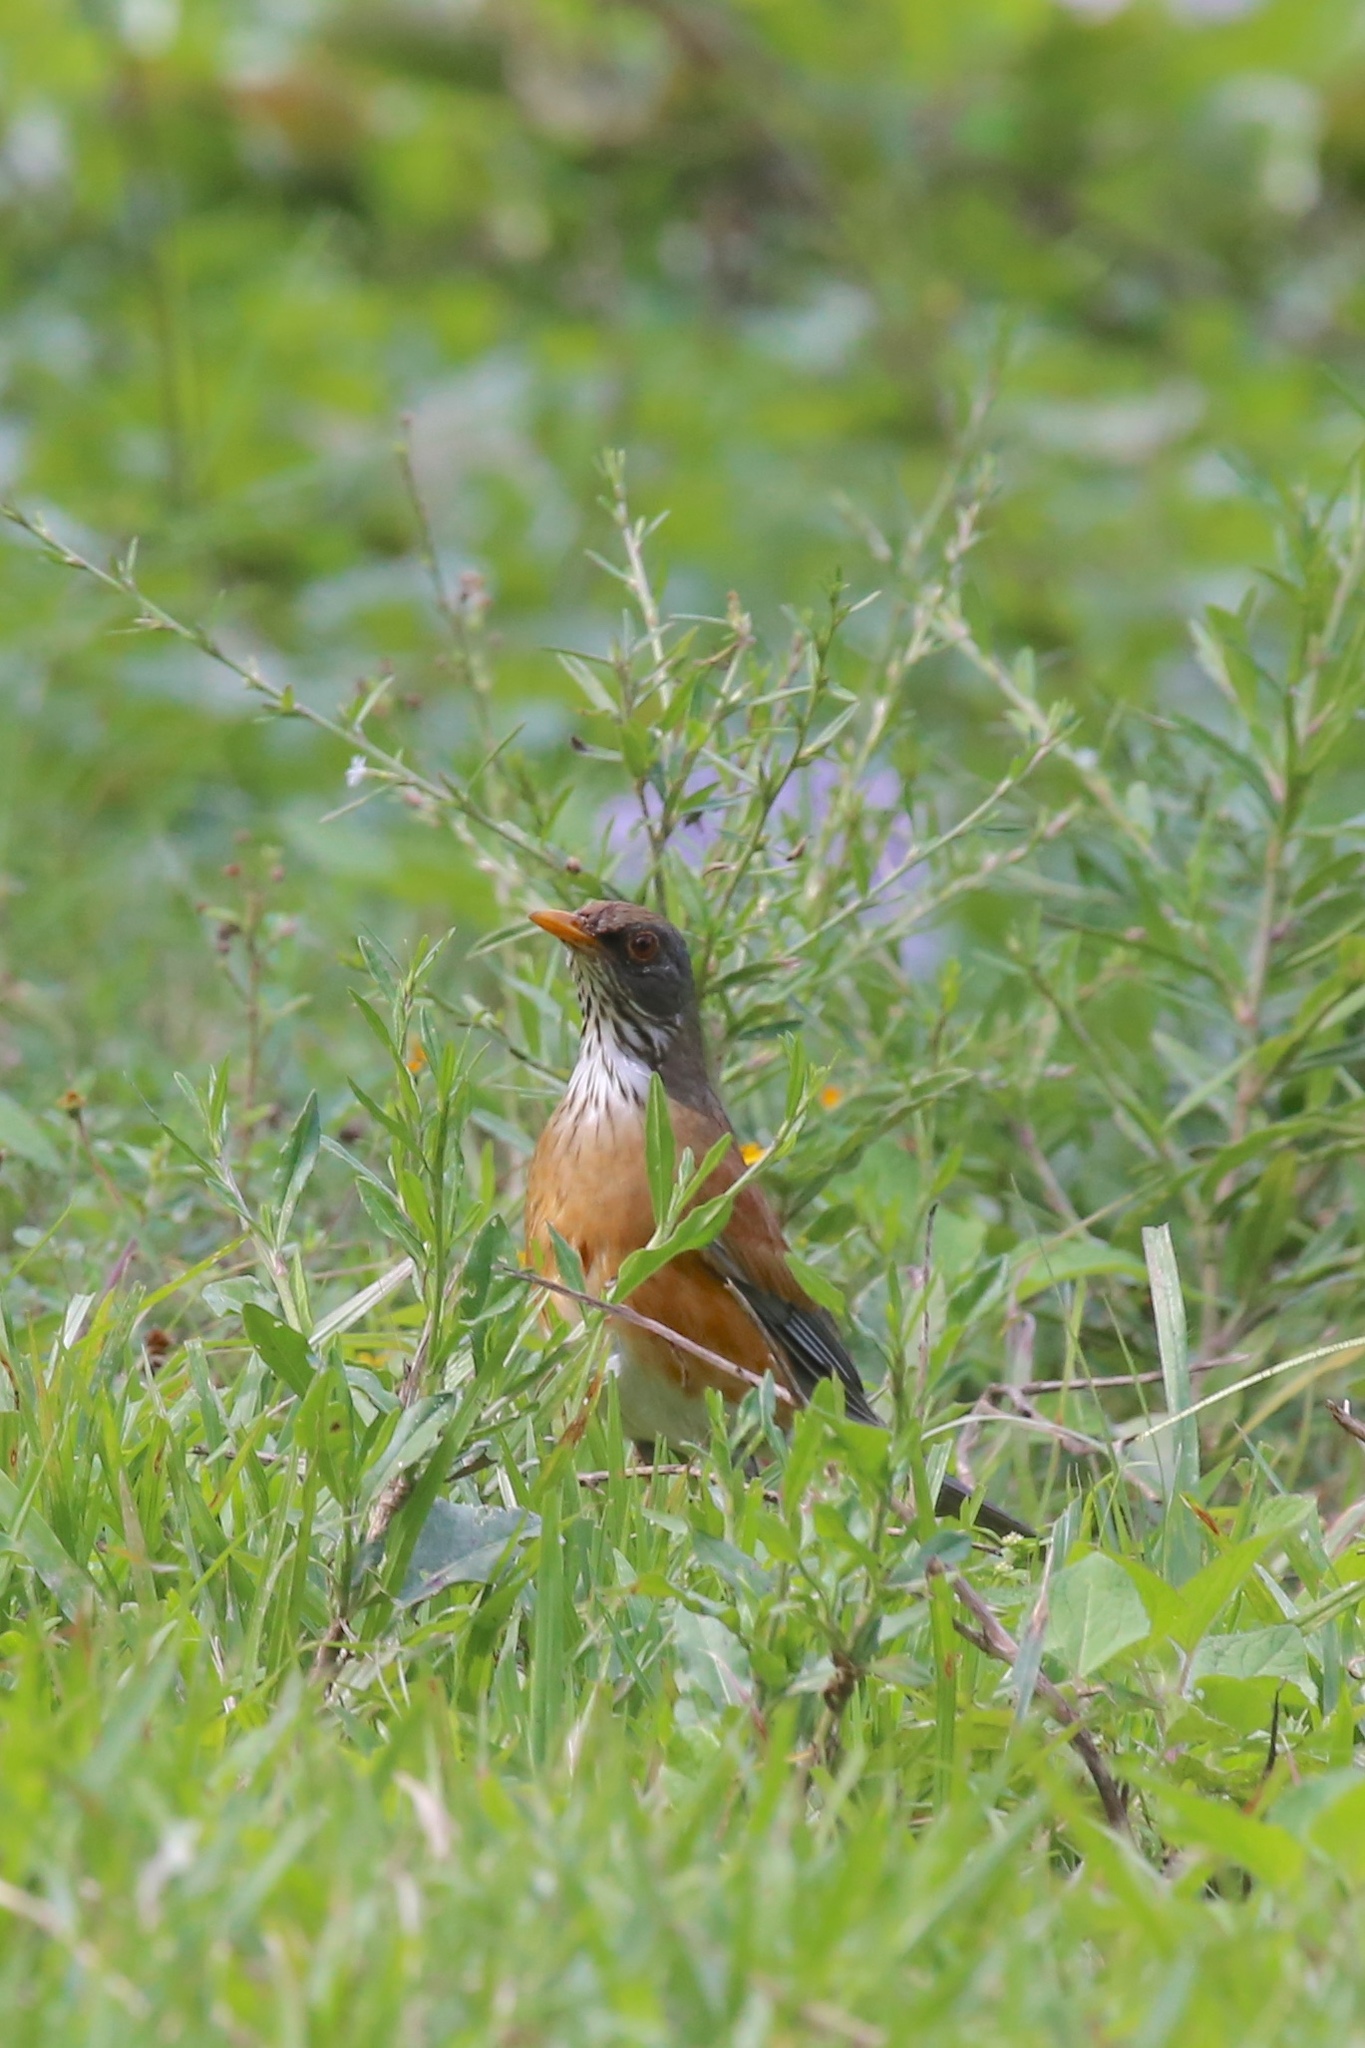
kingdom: Animalia
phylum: Chordata
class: Aves
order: Passeriformes
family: Turdidae
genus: Turdus
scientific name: Turdus rufopalliatus
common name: Rufous-backed robin
